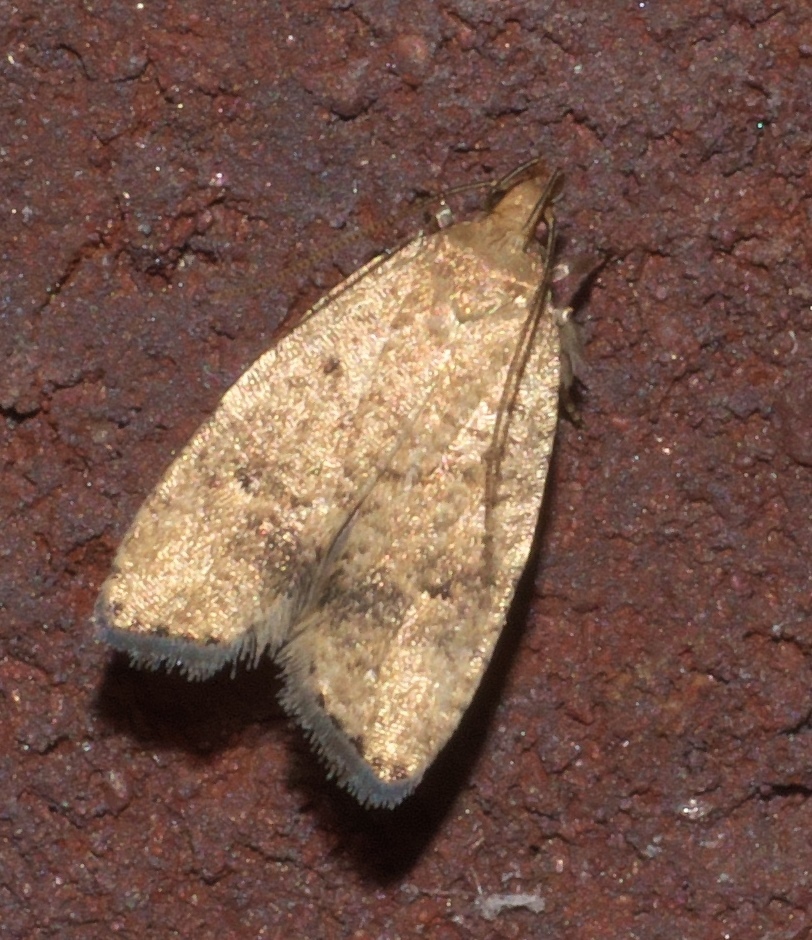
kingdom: Animalia
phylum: Arthropoda
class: Insecta
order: Lepidoptera
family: Depressariidae
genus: Psilocorsis
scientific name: Psilocorsis quercicella
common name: Oak leaftier moth
